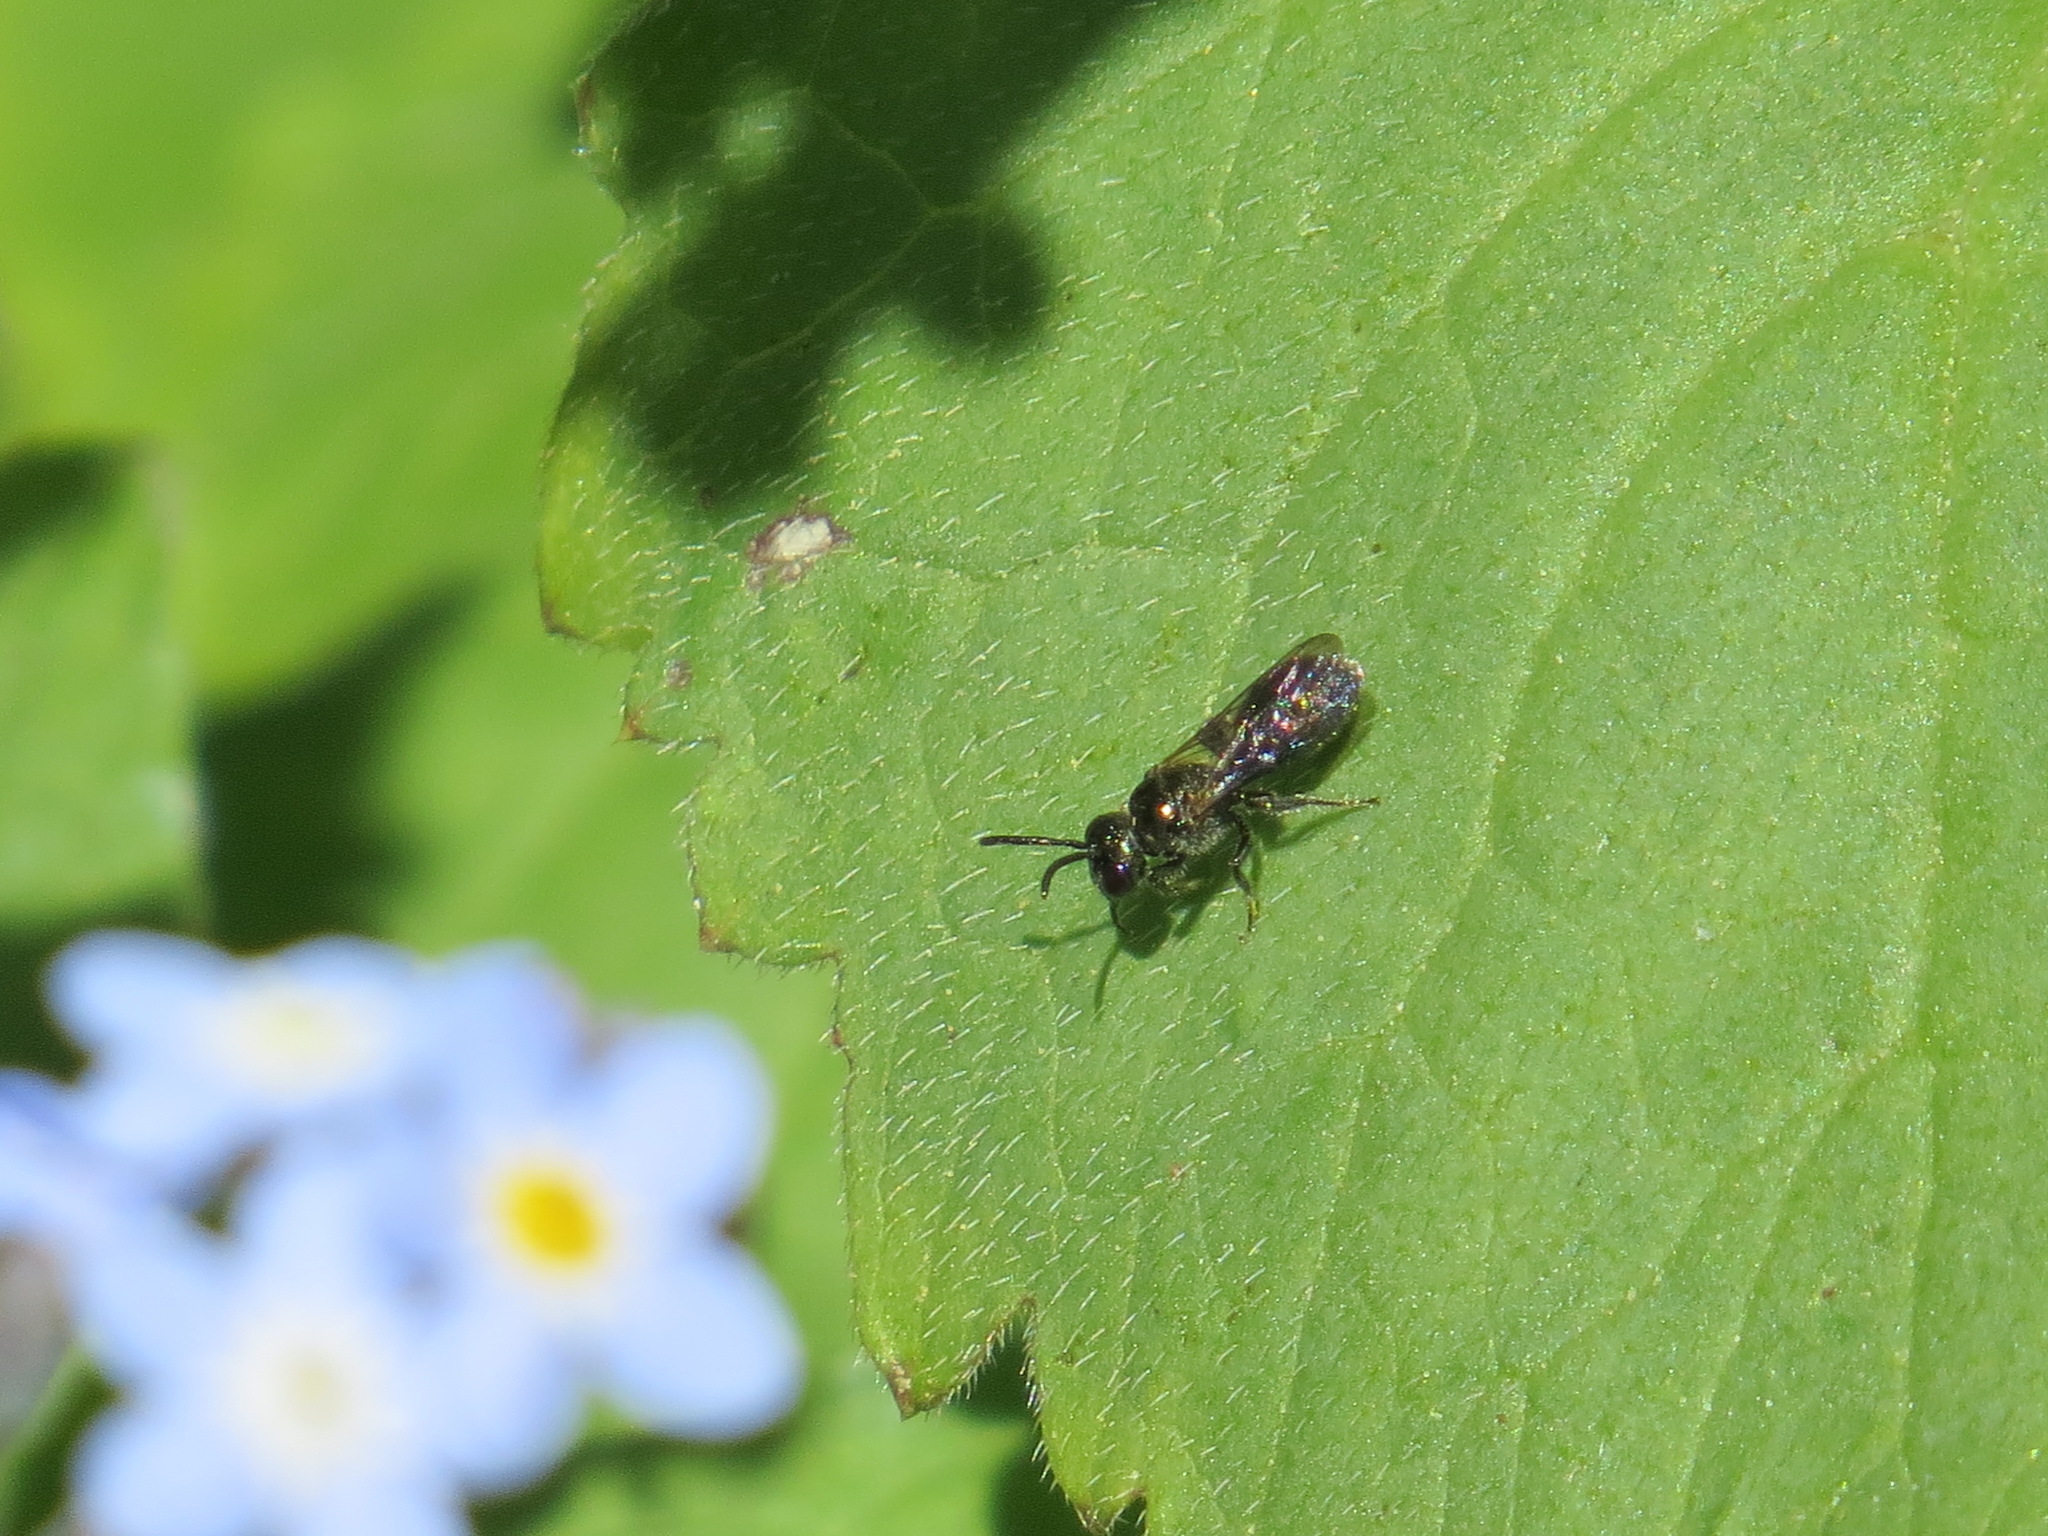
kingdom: Animalia
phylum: Arthropoda
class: Insecta
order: Hymenoptera
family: Apidae
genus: Zadontomerus
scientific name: Zadontomerus
